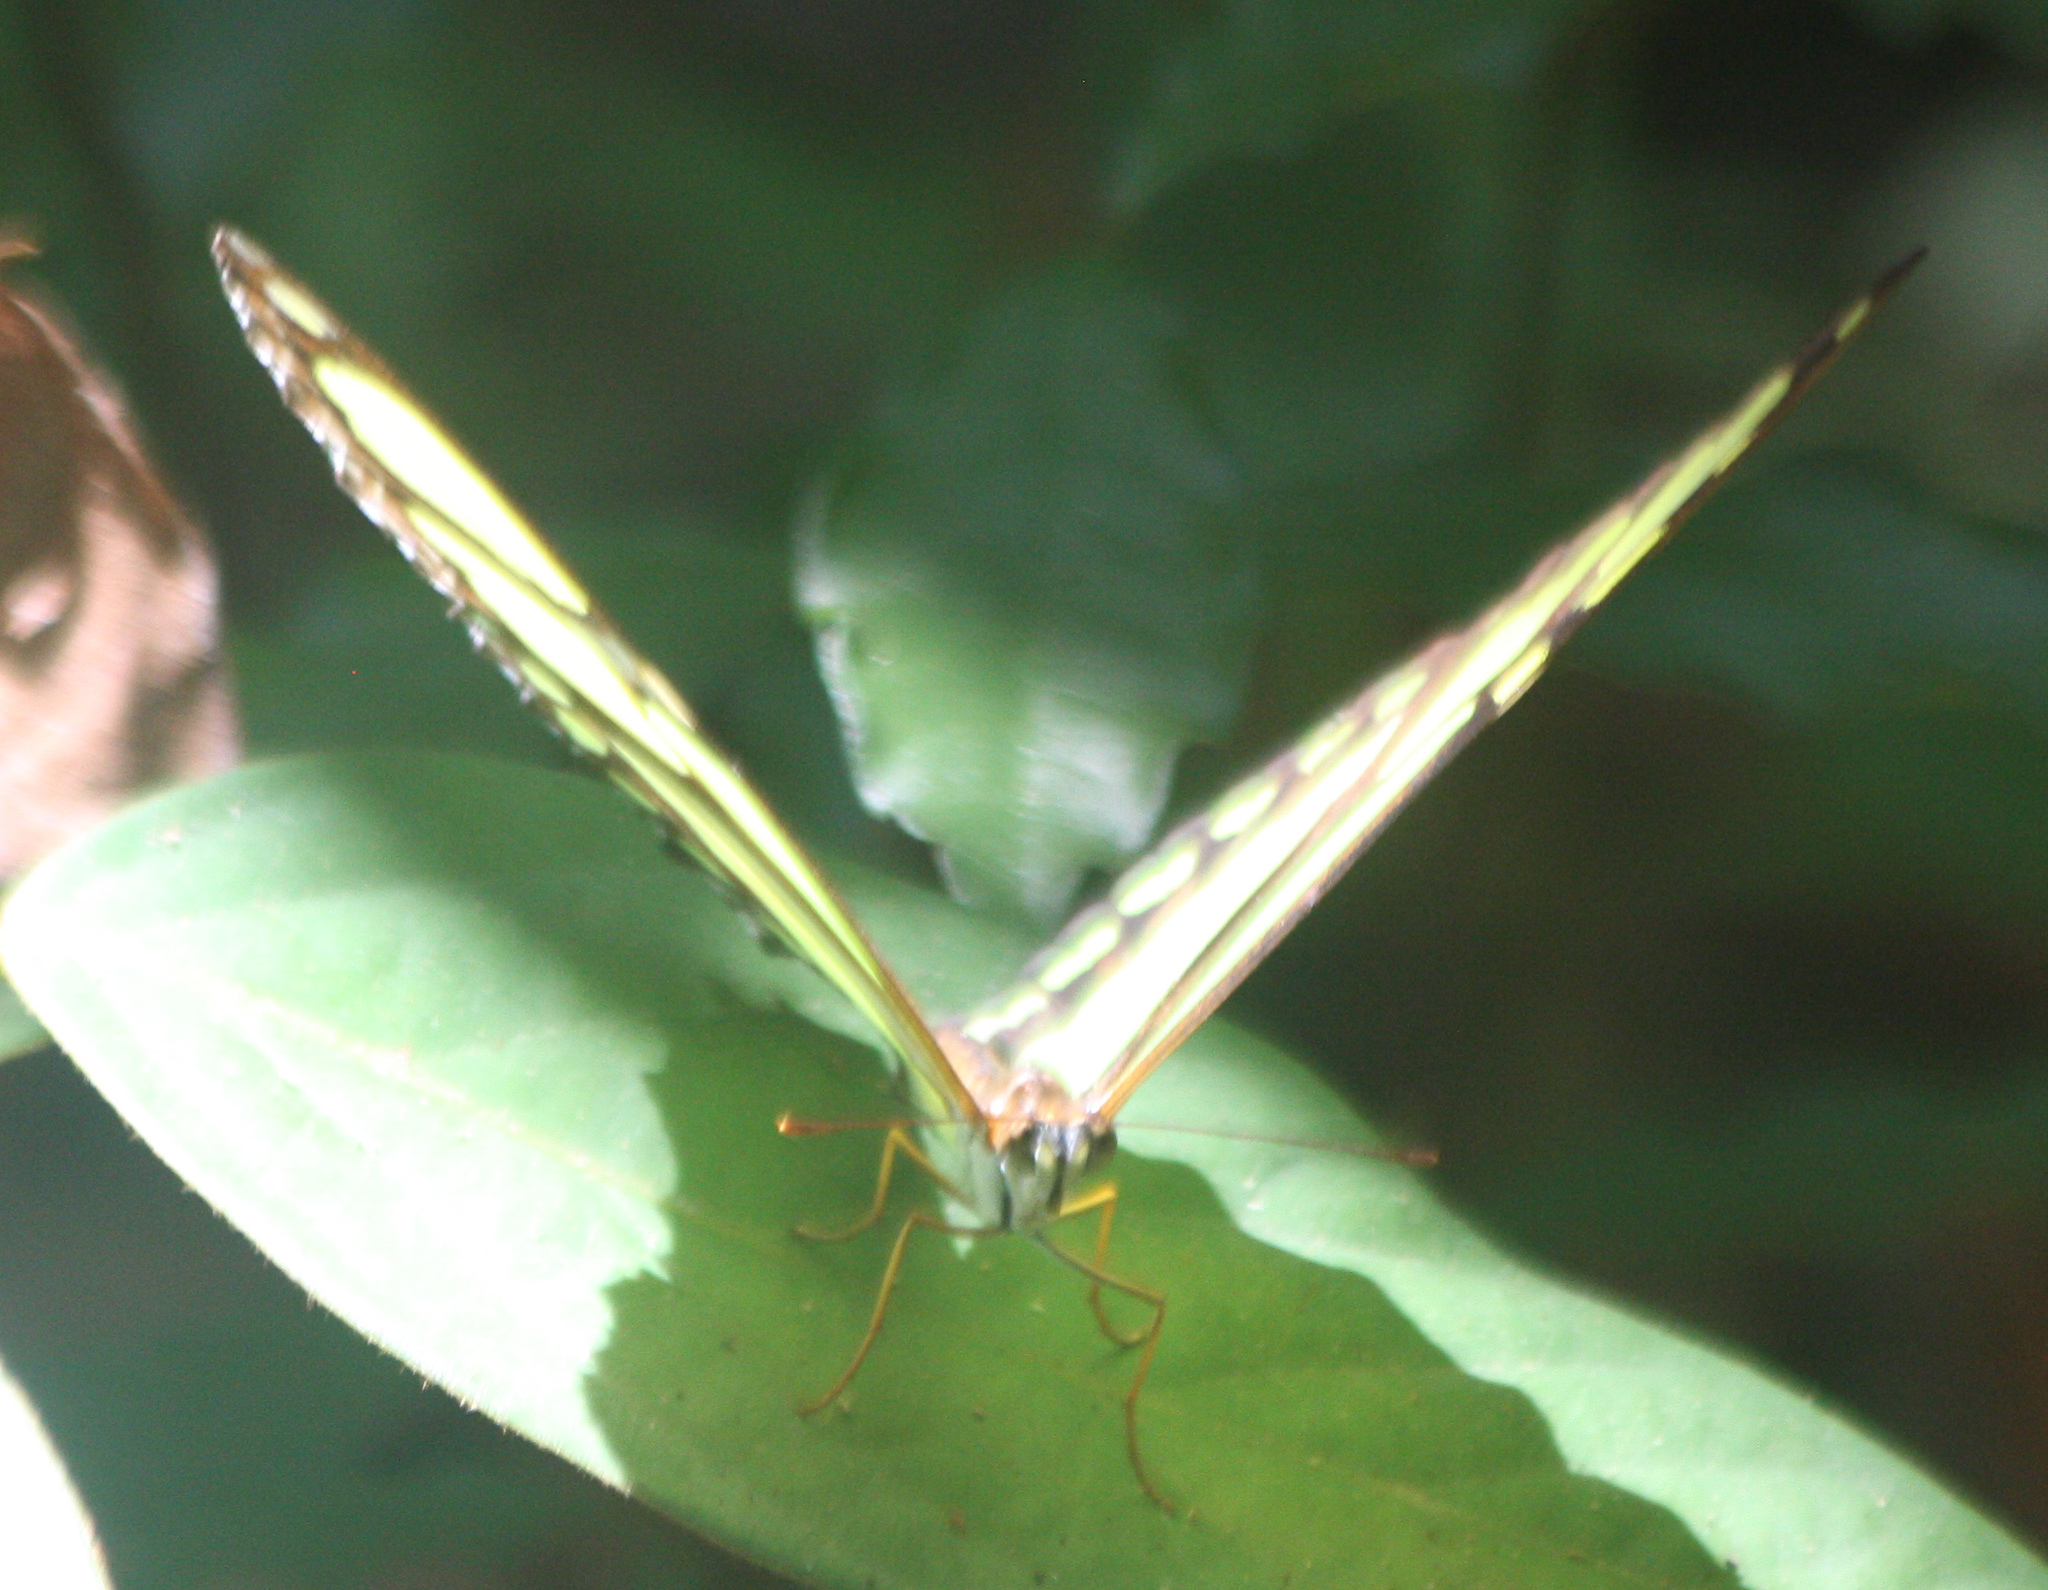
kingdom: Animalia
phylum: Arthropoda
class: Insecta
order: Lepidoptera
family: Nymphalidae
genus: Siproeta
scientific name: Siproeta stelenes
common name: Malachite
